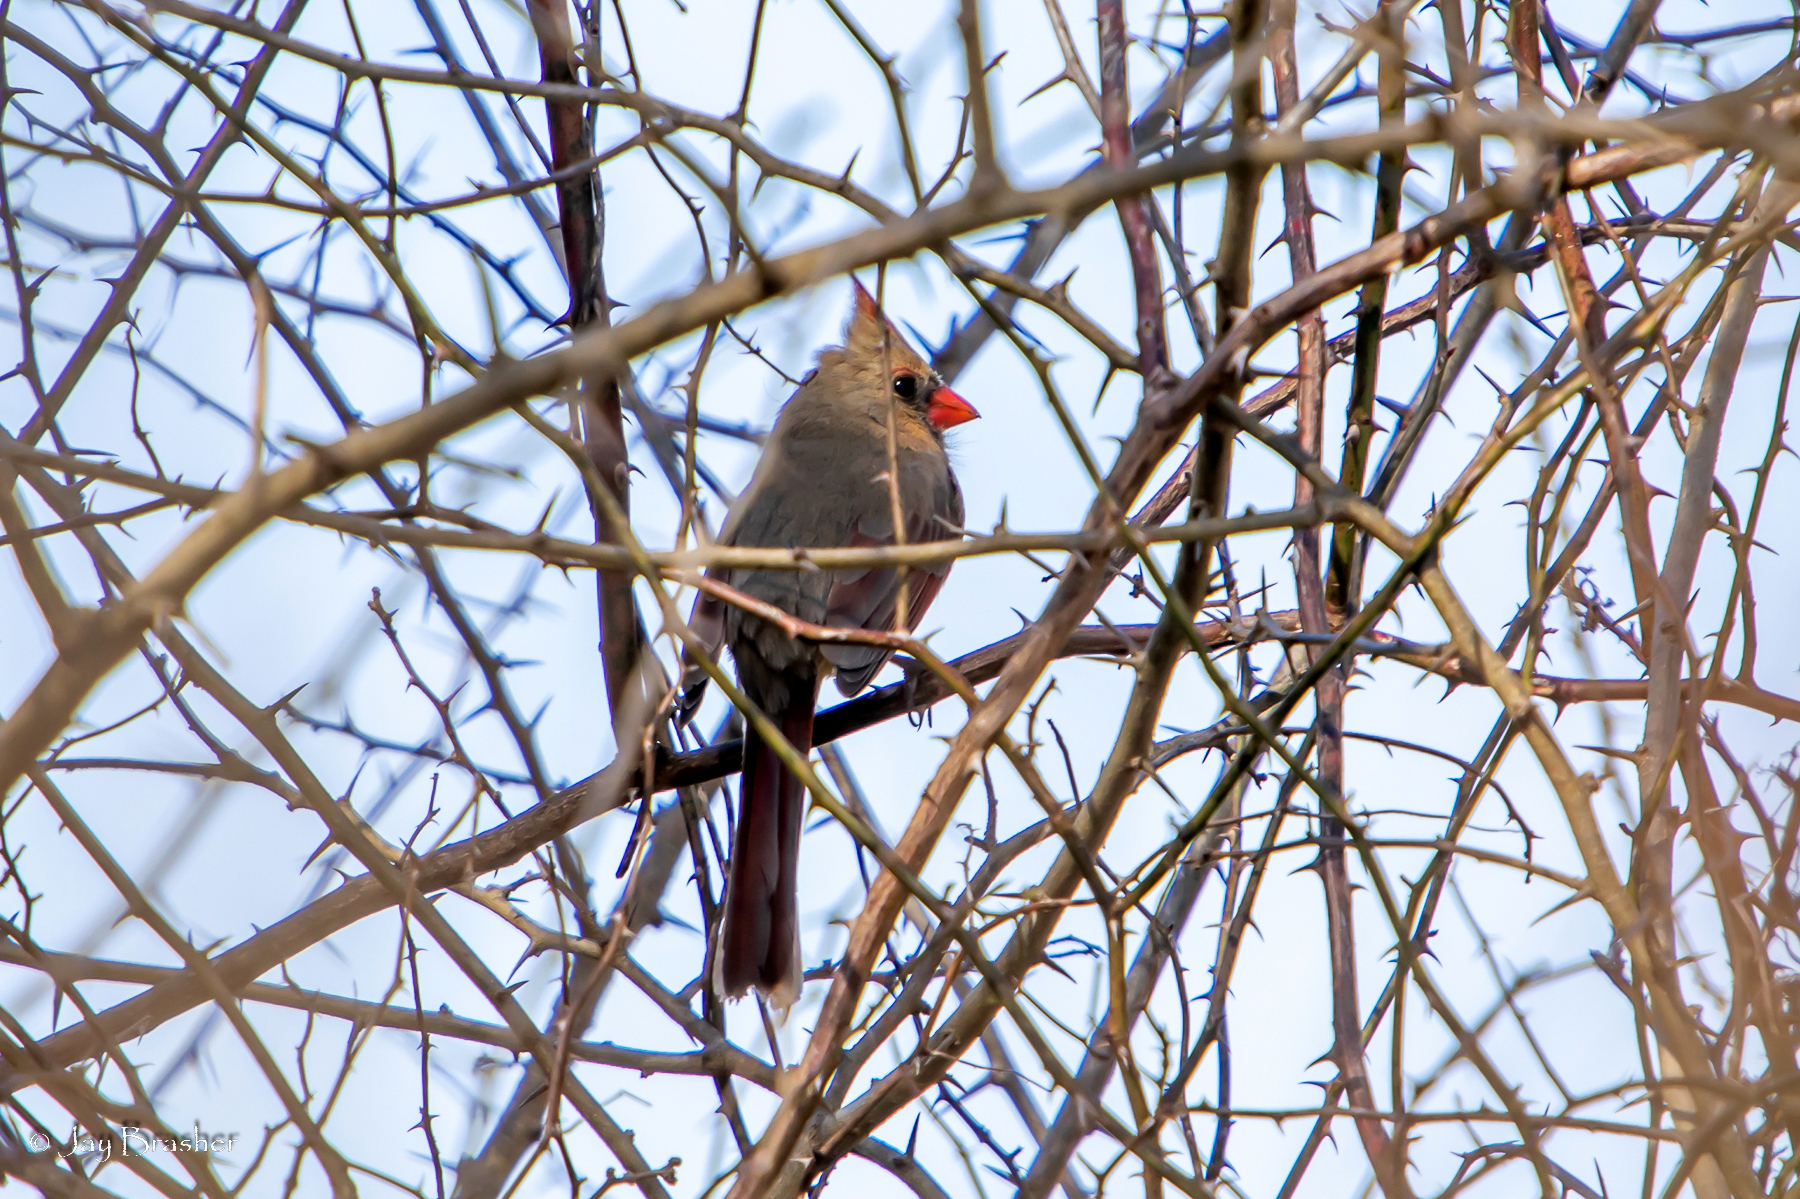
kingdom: Animalia
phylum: Chordata
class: Aves
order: Passeriformes
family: Cardinalidae
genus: Cardinalis
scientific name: Cardinalis cardinalis
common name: Northern cardinal
